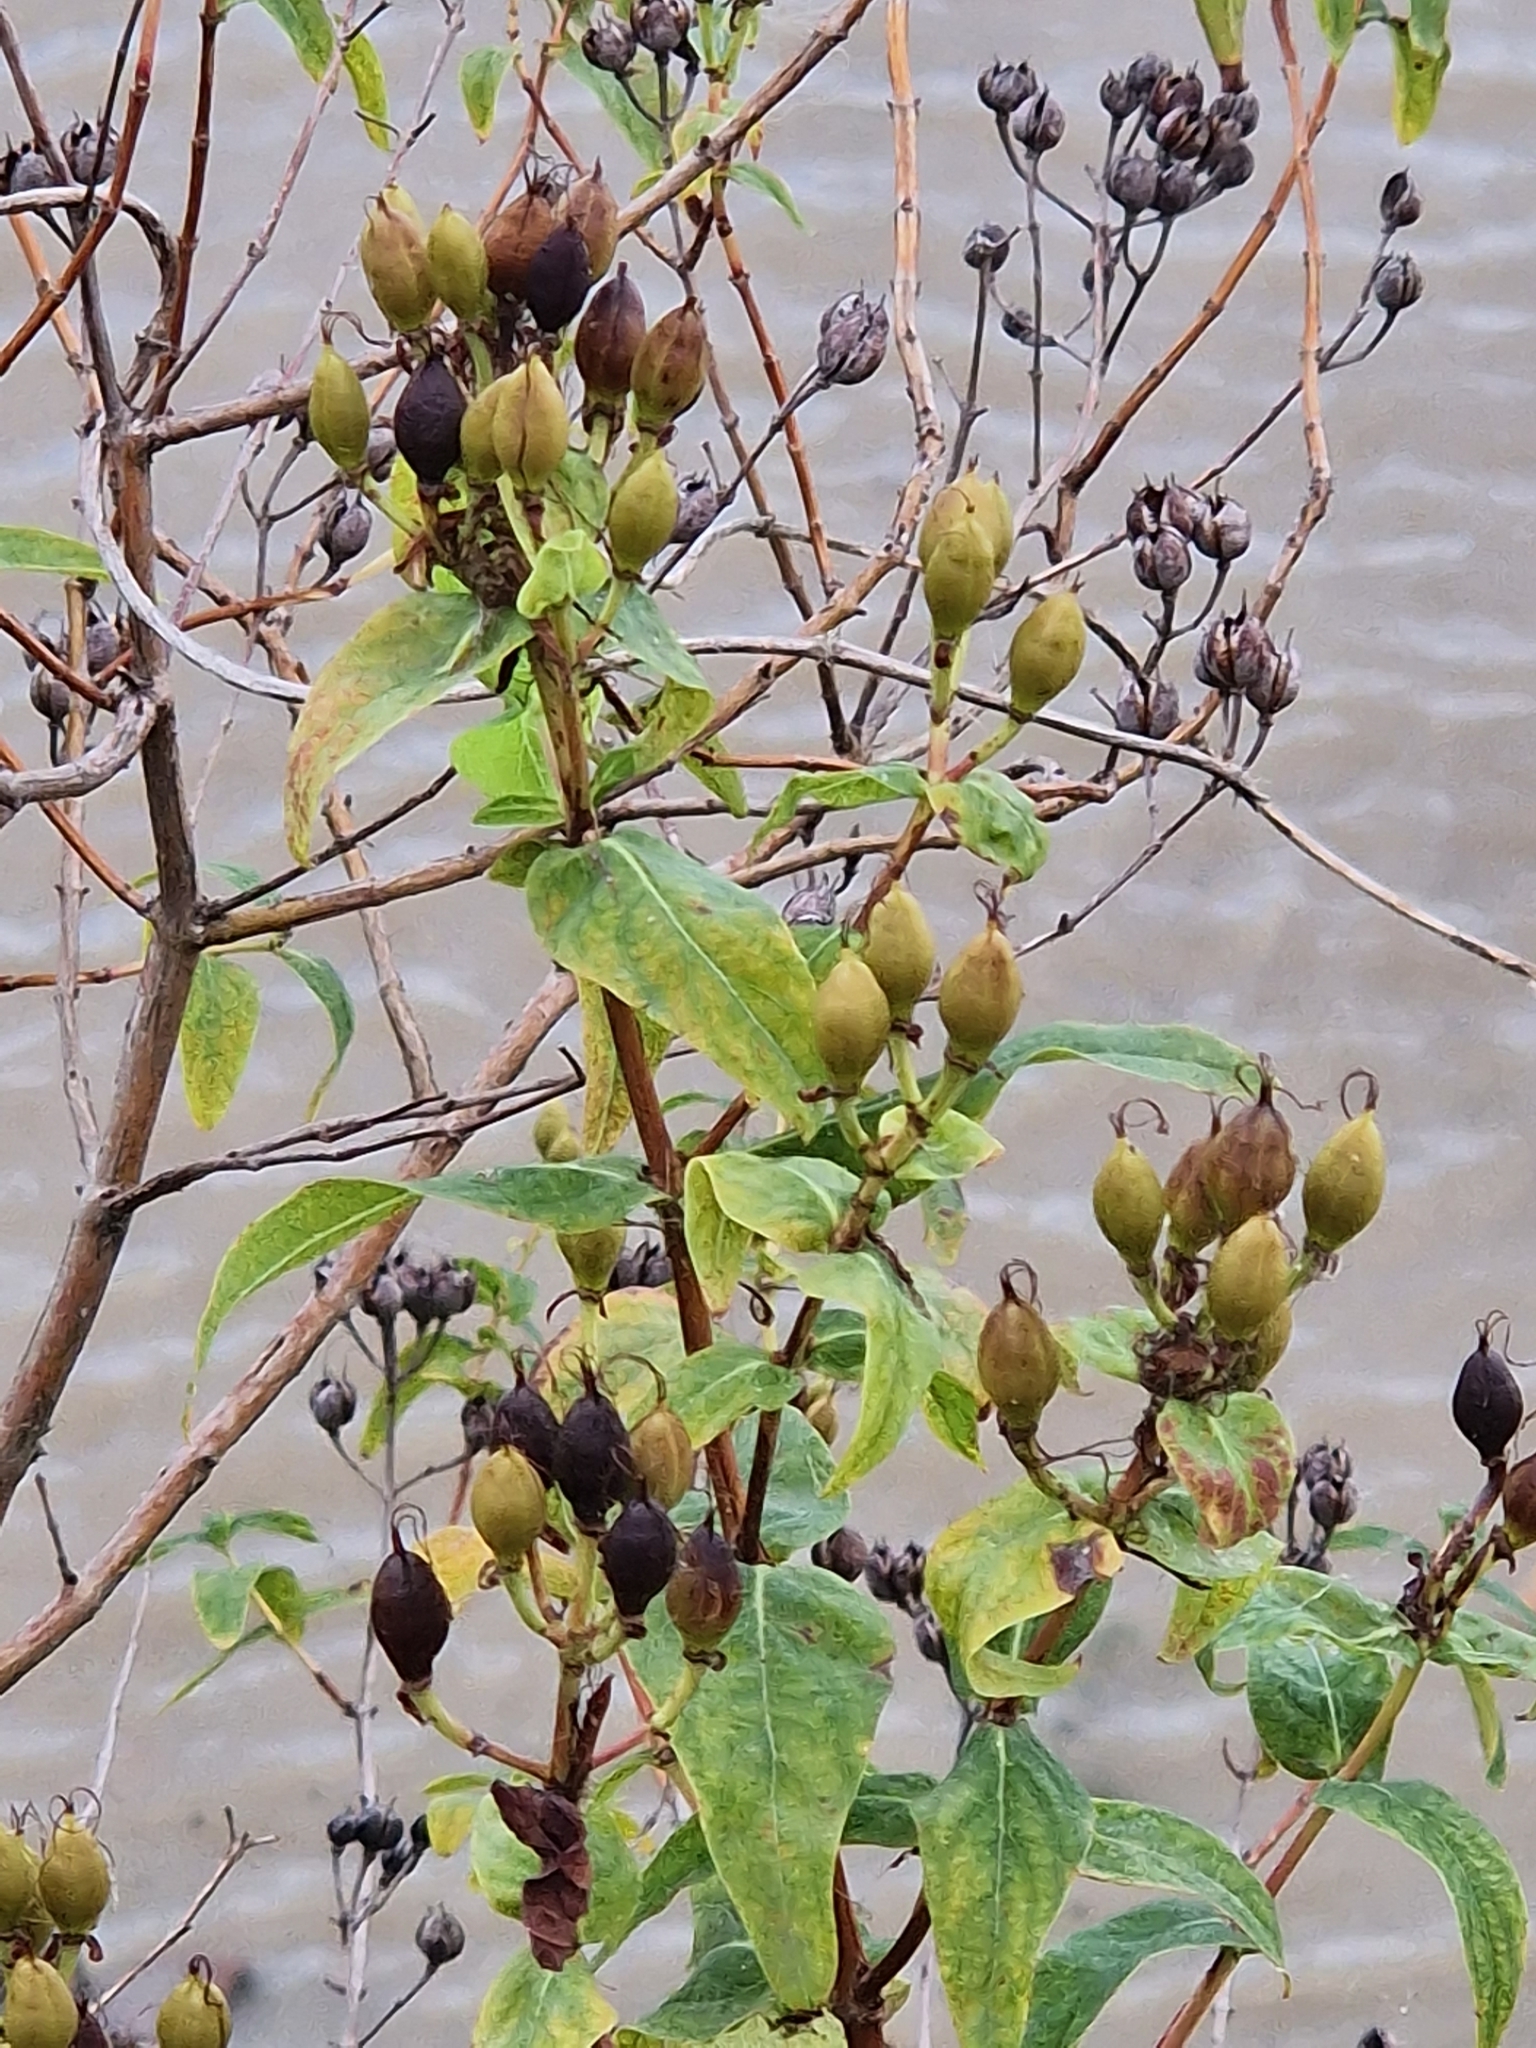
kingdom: Plantae
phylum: Tracheophyta
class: Magnoliopsida
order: Malpighiales
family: Hypericaceae
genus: Hypericum
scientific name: Hypericum hircinum
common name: Stinking tutsan
